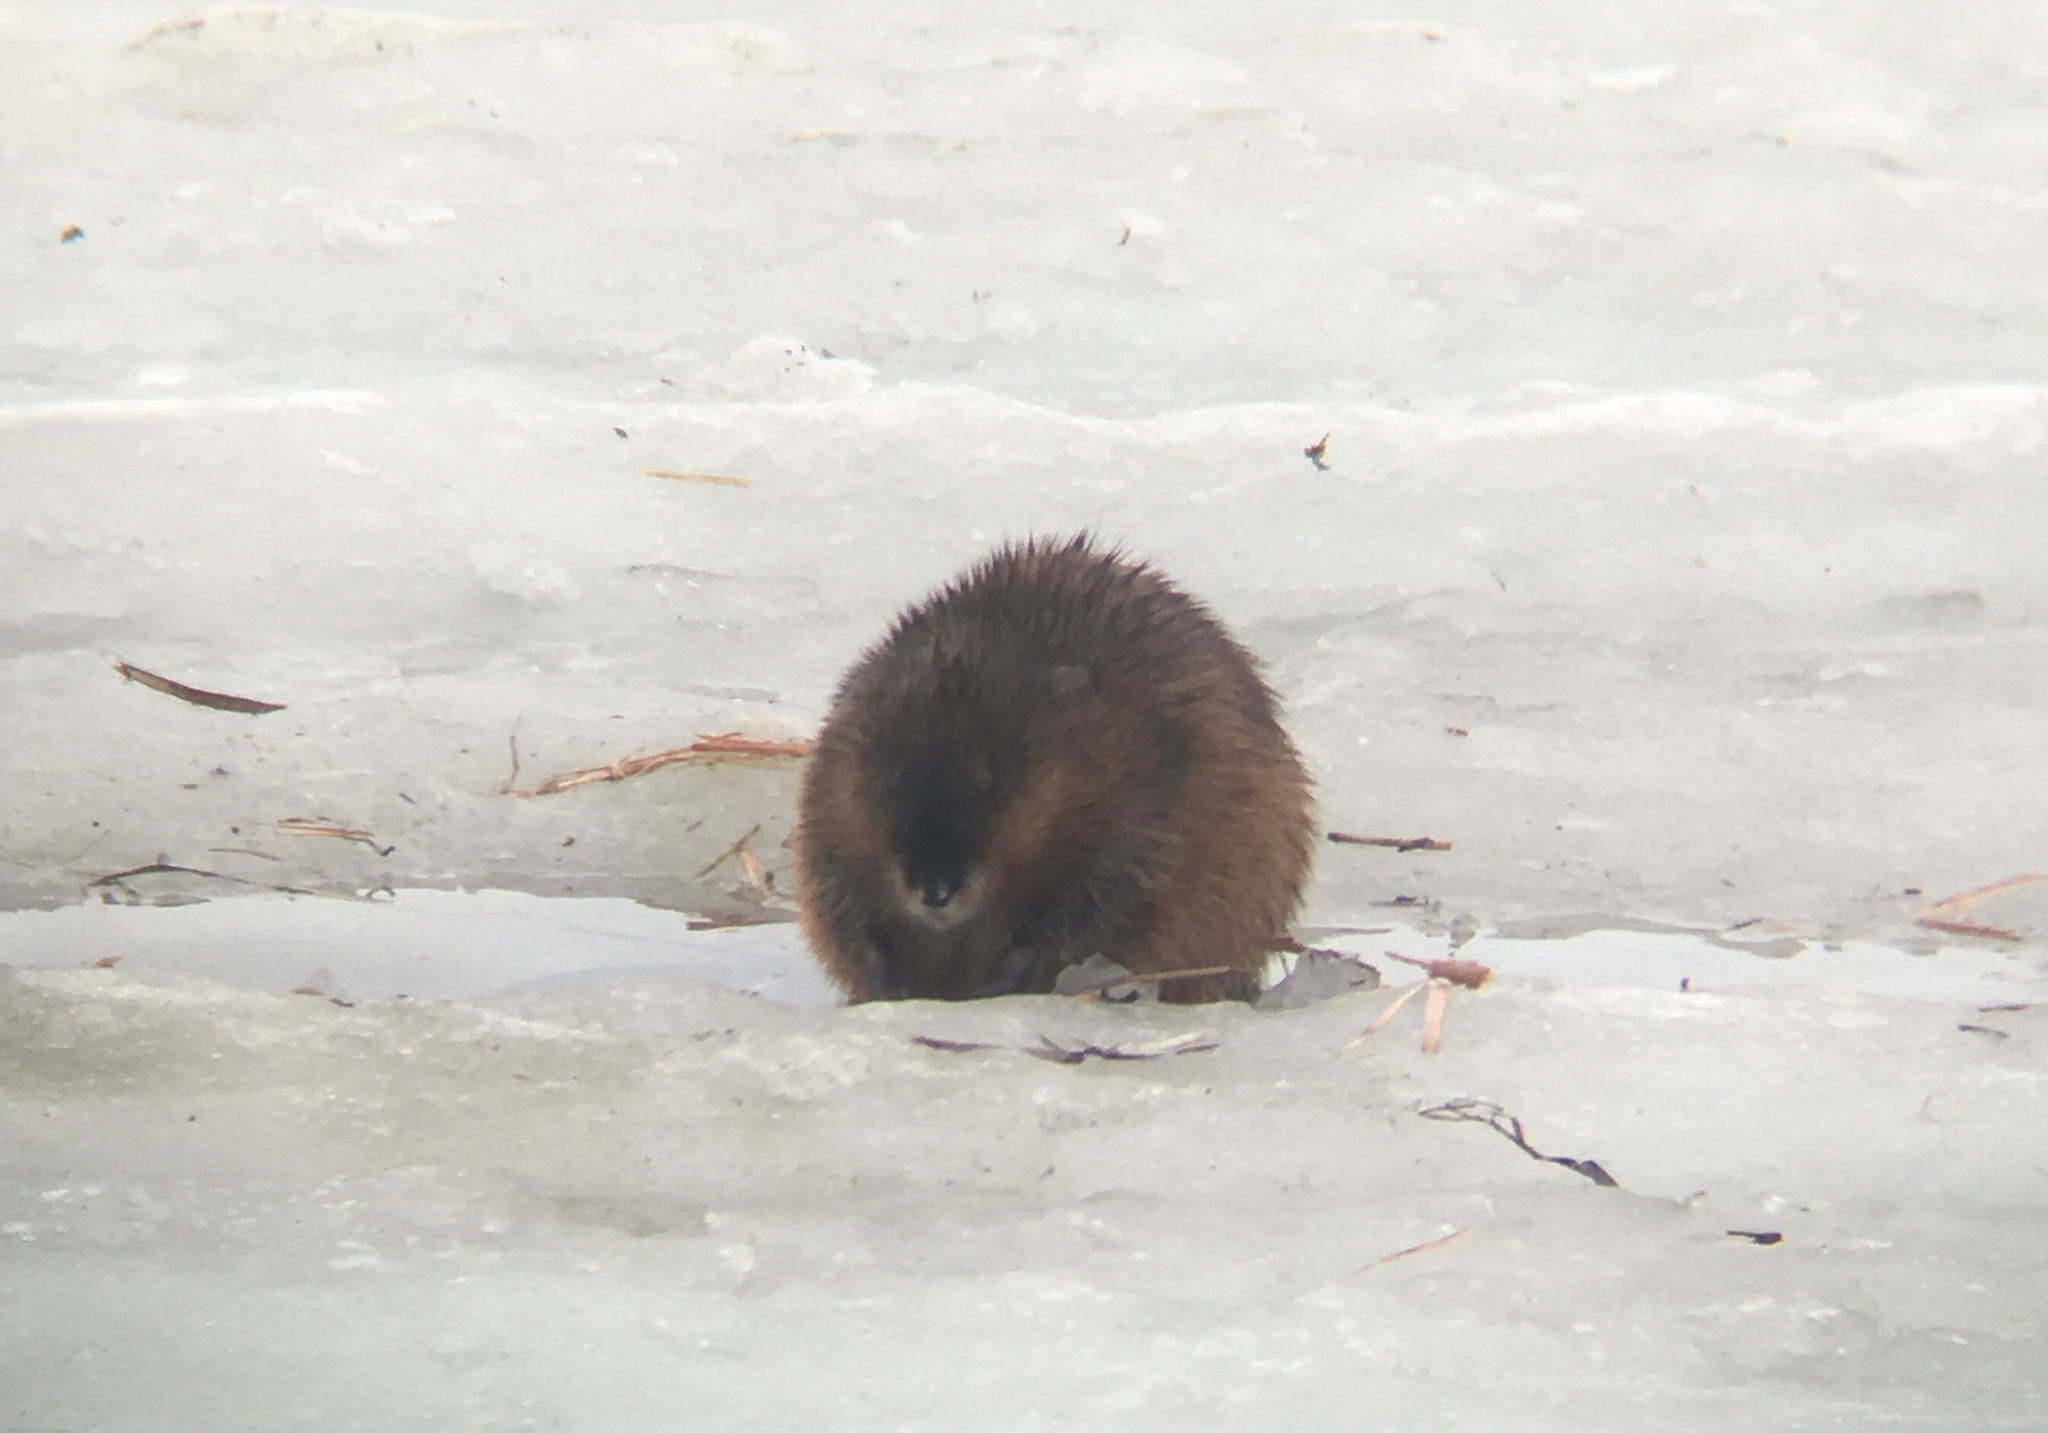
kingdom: Animalia
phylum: Chordata
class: Mammalia
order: Rodentia
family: Cricetidae
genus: Ondatra
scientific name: Ondatra zibethicus
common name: Muskrat
